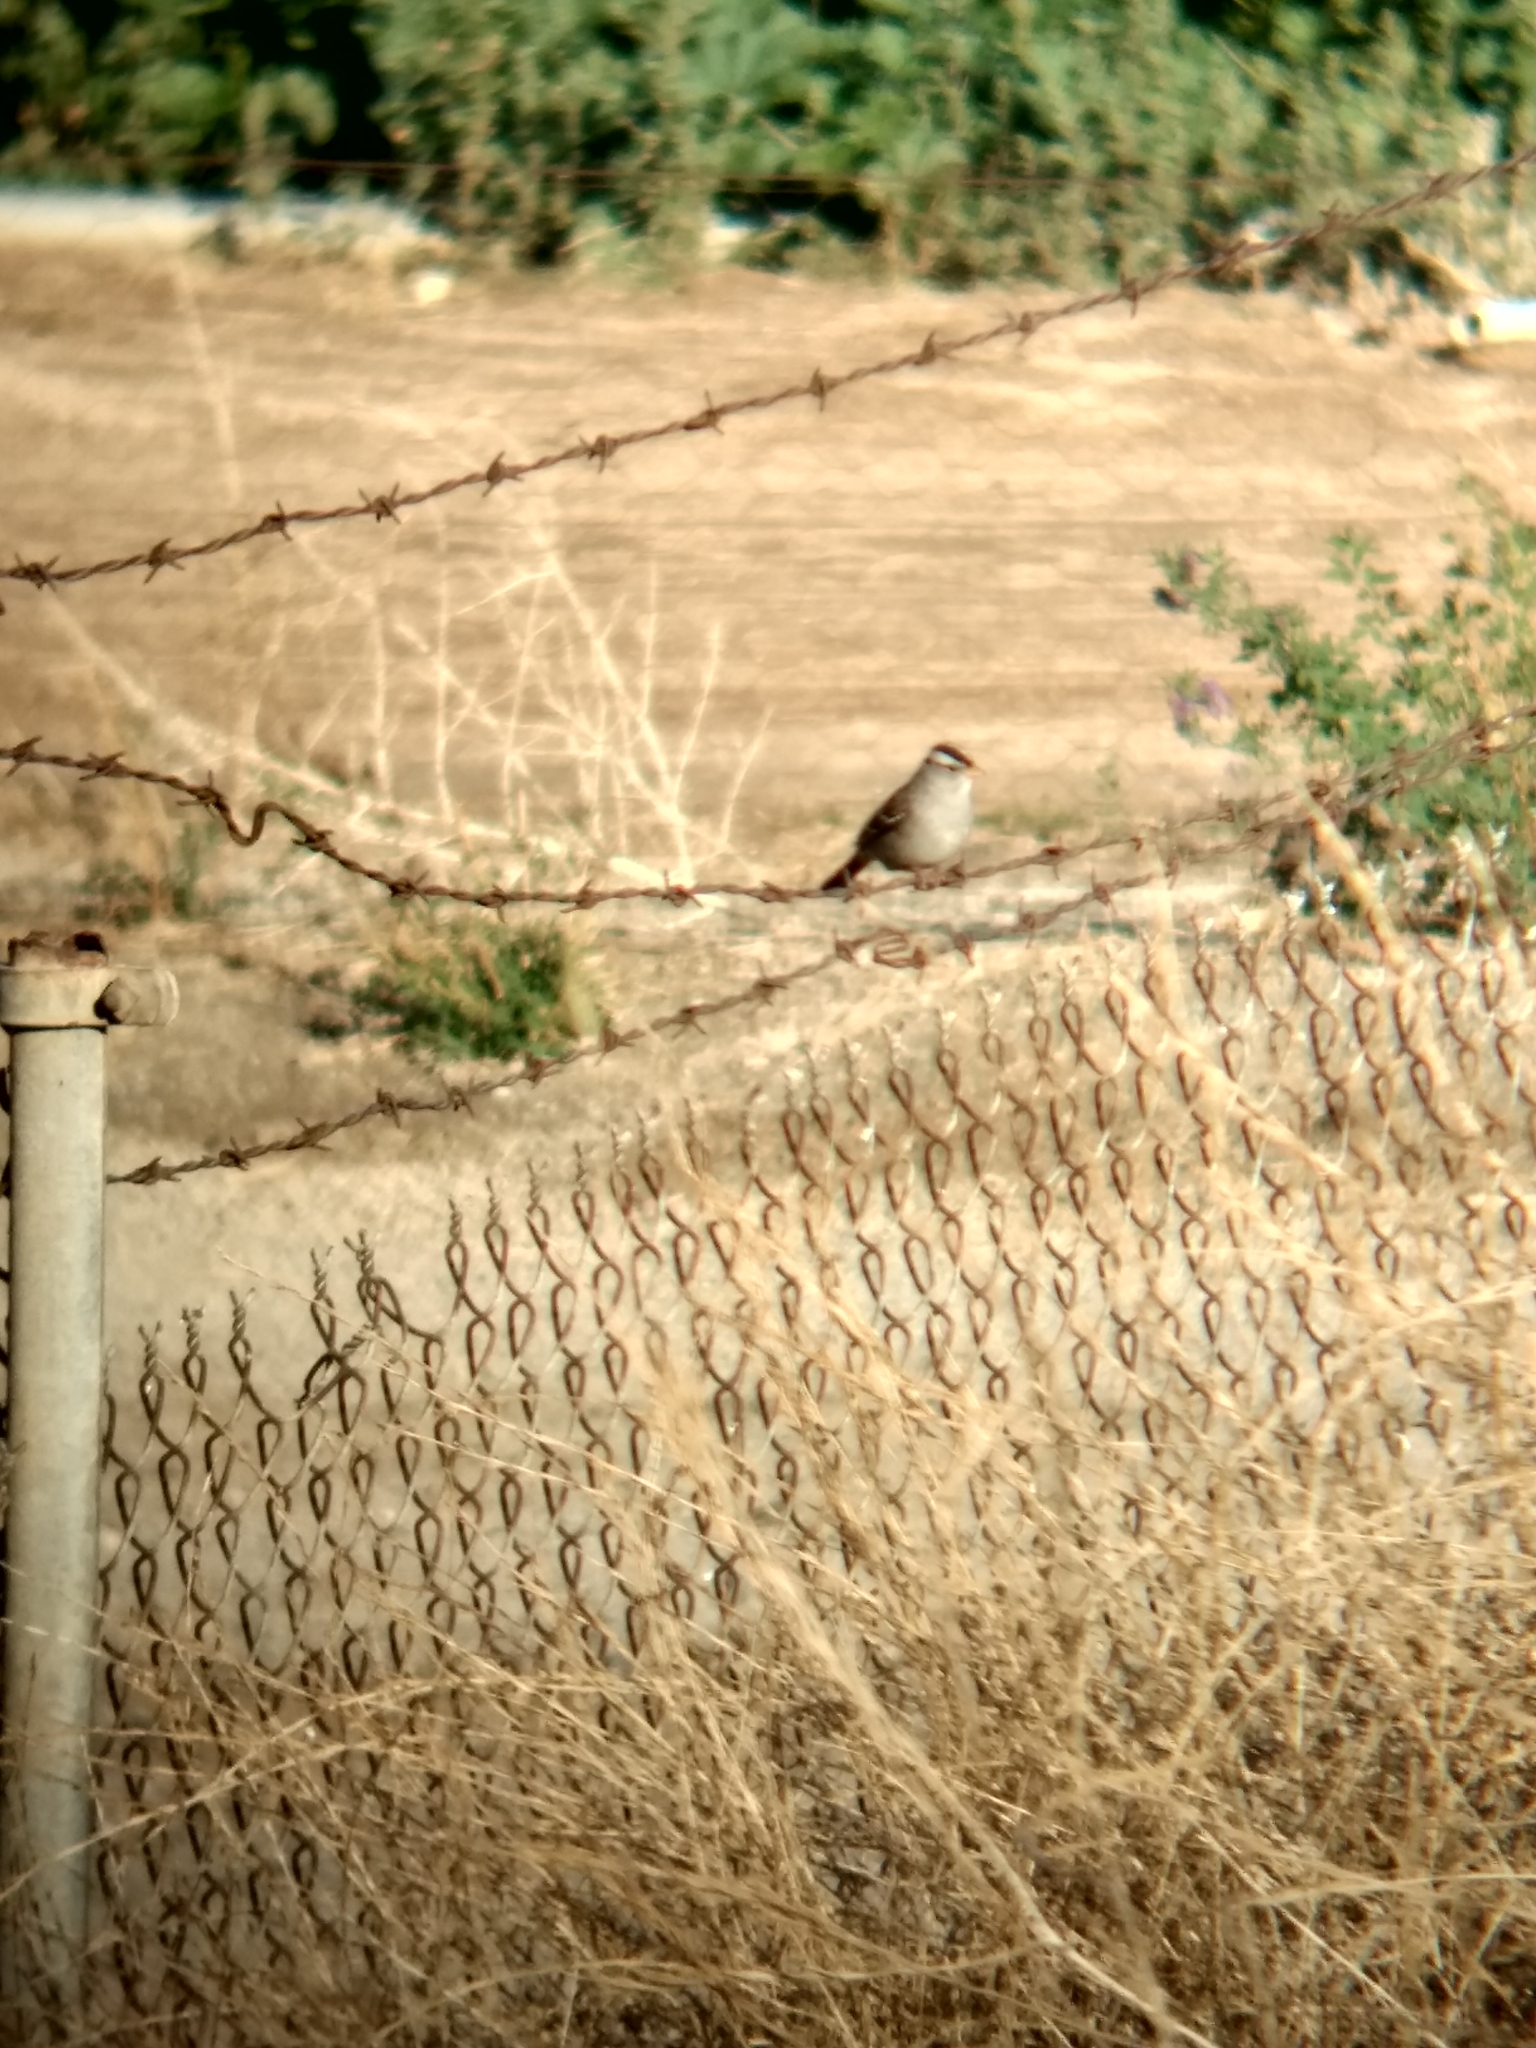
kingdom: Animalia
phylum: Chordata
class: Aves
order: Passeriformes
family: Passerellidae
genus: Zonotrichia
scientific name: Zonotrichia leucophrys
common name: White-crowned sparrow
